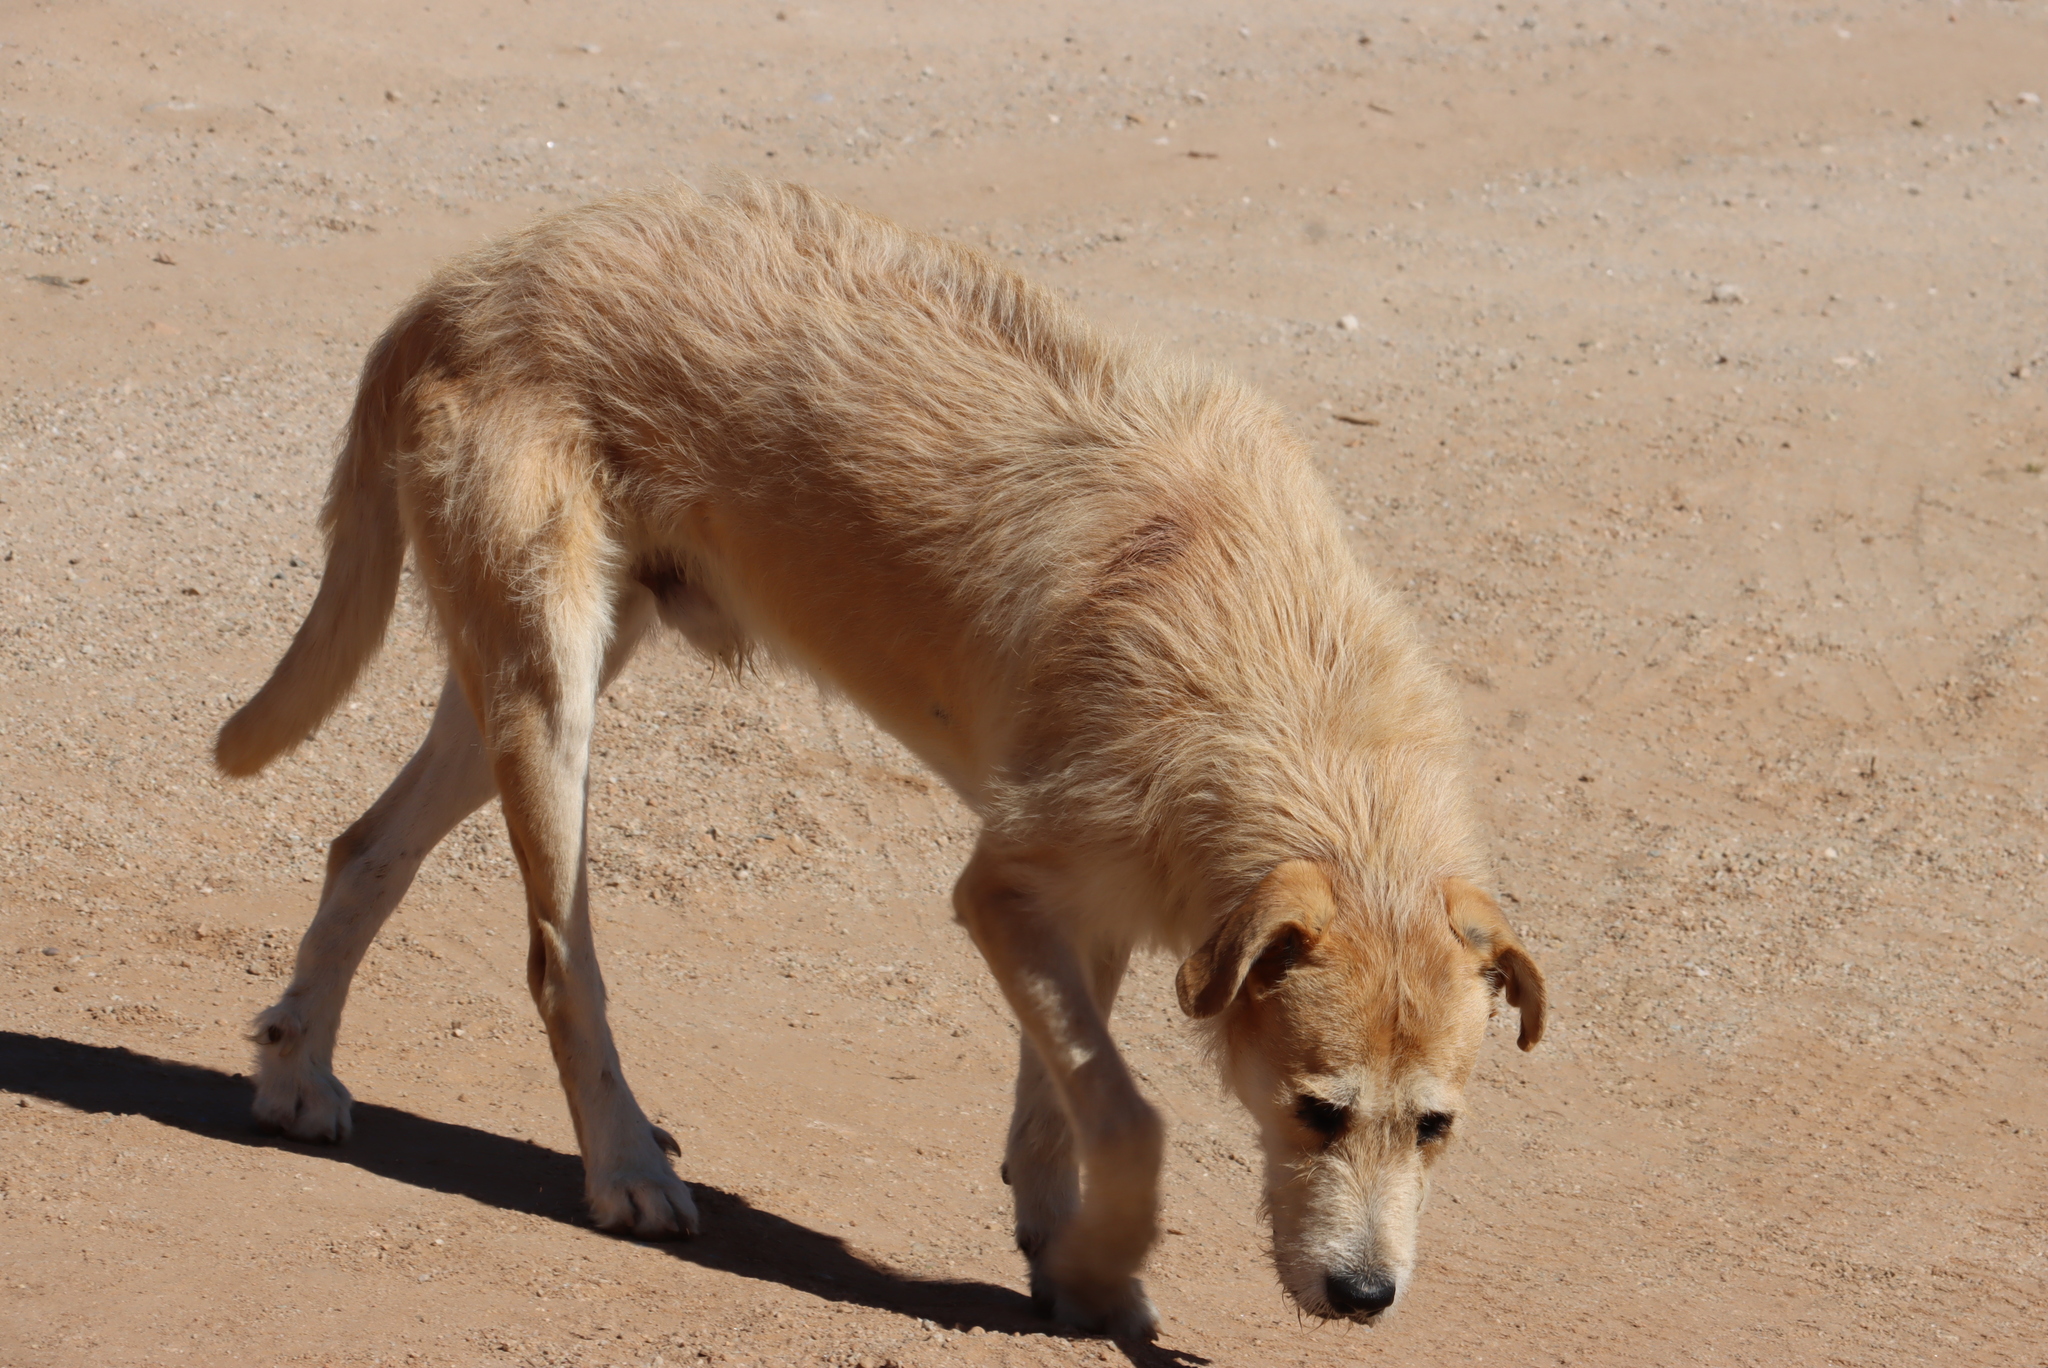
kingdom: Animalia
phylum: Chordata
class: Mammalia
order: Carnivora
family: Canidae
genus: Canis
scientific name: Canis lupus
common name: Gray wolf
